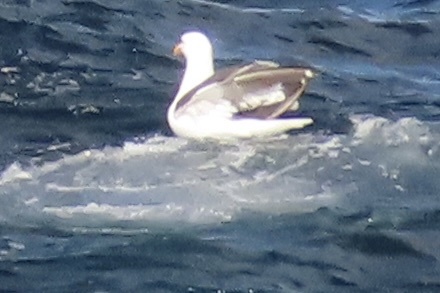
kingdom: Animalia
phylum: Chordata
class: Aves
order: Charadriiformes
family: Laridae
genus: Larus
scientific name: Larus occidentalis
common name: Western gull
